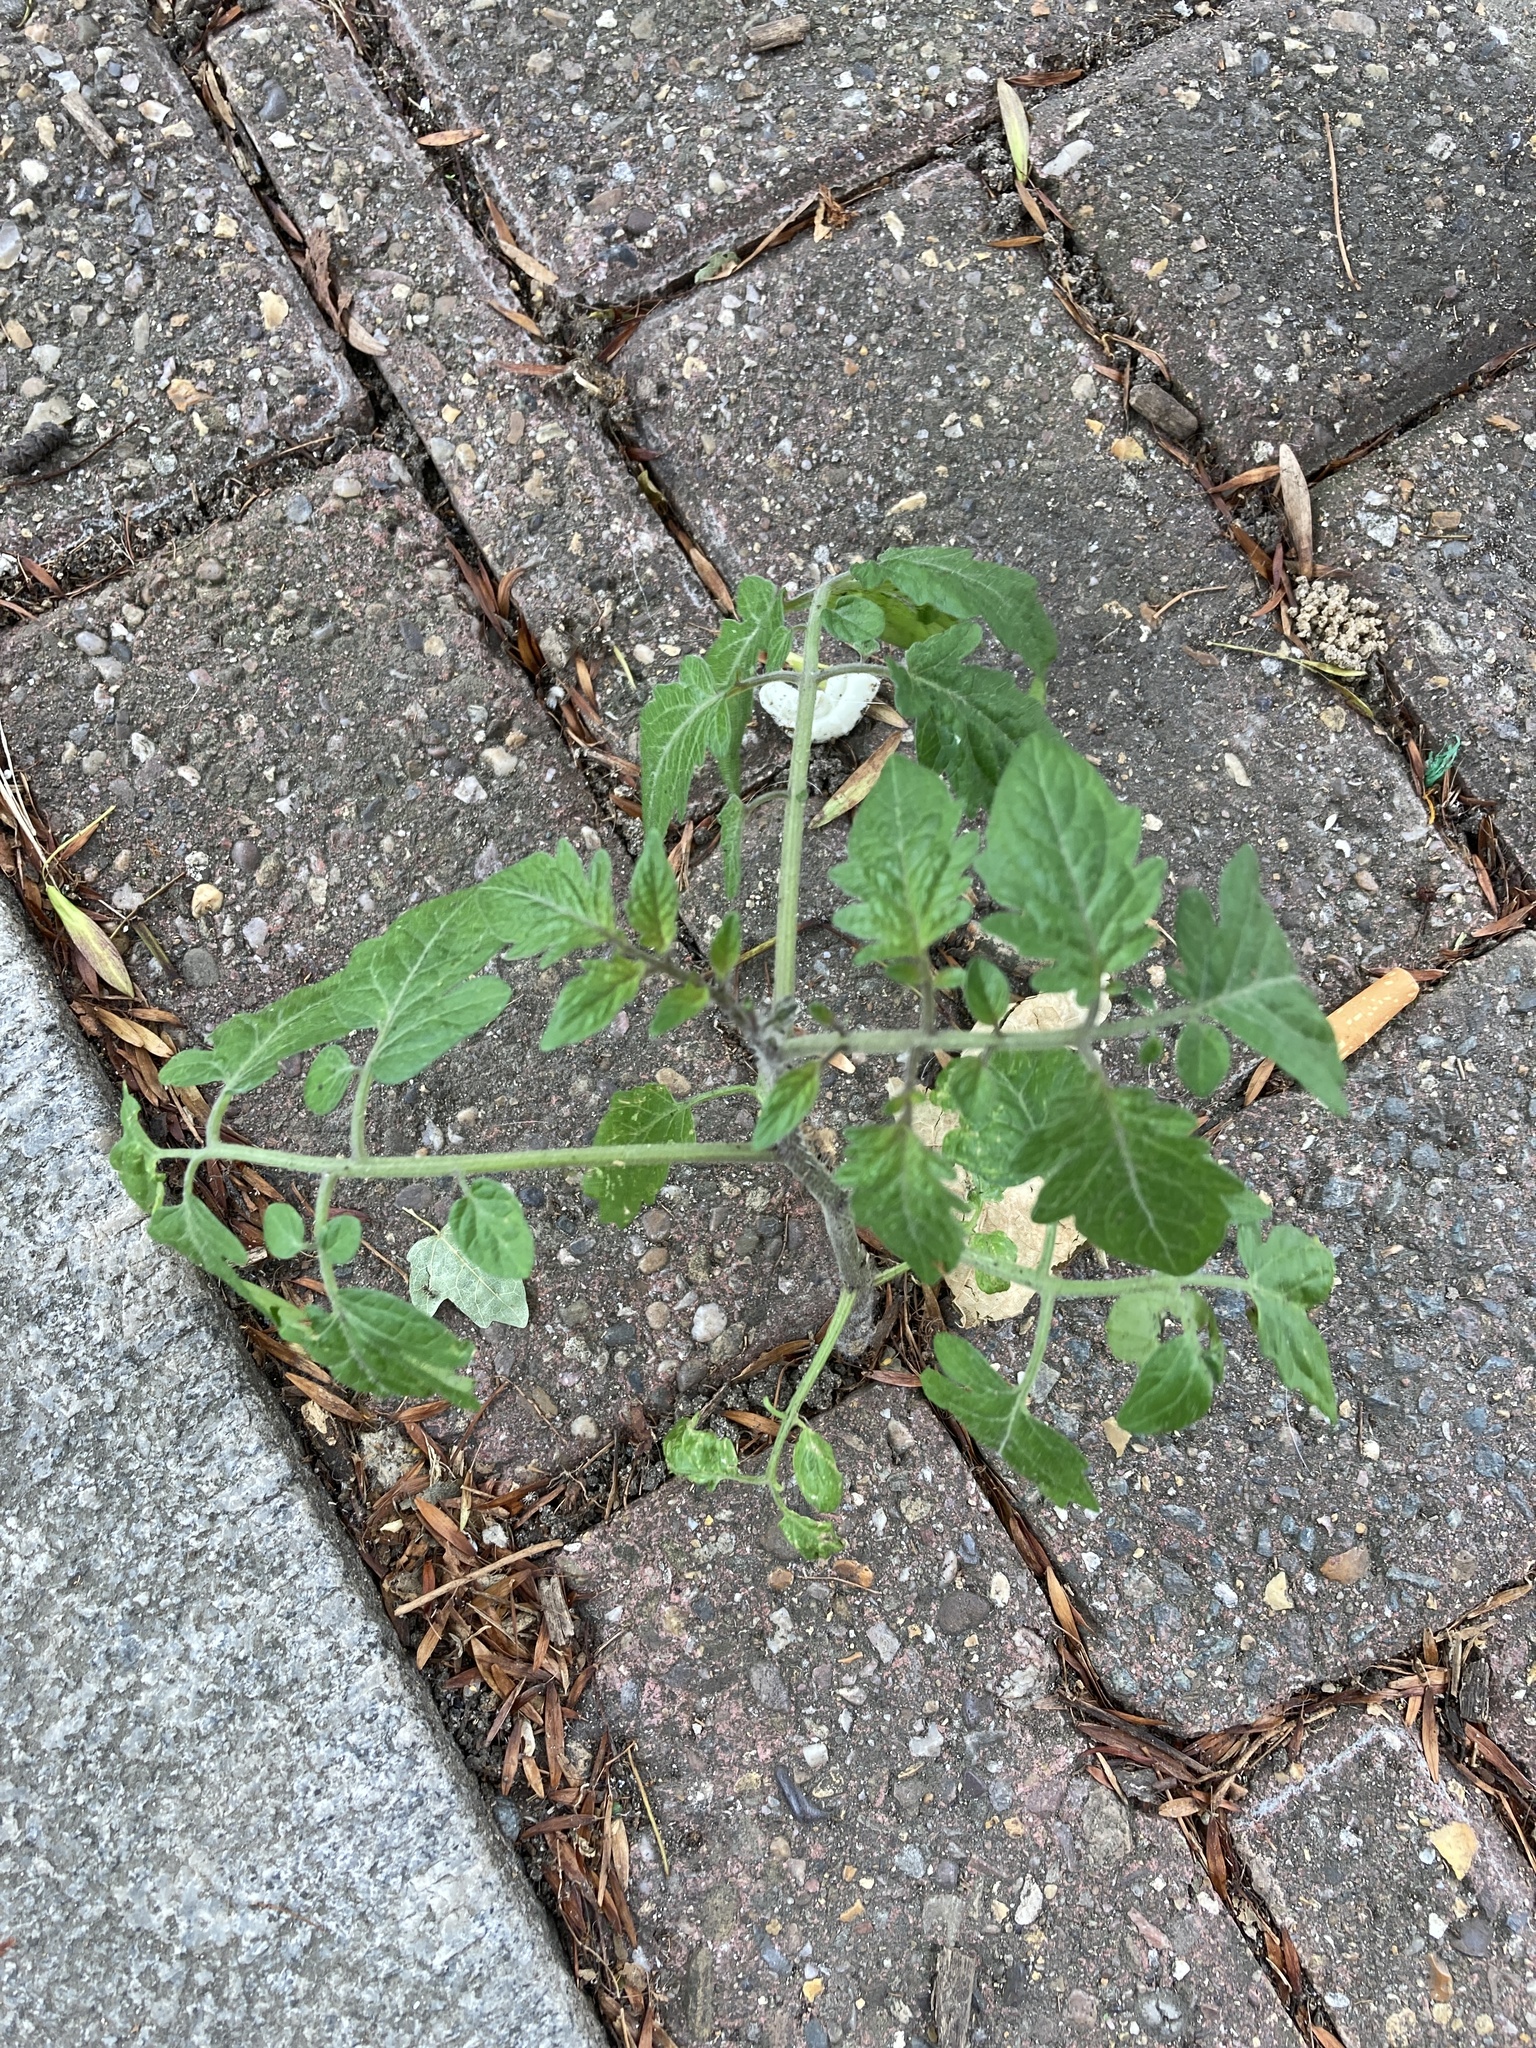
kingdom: Plantae
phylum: Tracheophyta
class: Magnoliopsida
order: Solanales
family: Solanaceae
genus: Solanum
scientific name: Solanum lycopersicum
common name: Garden tomato
